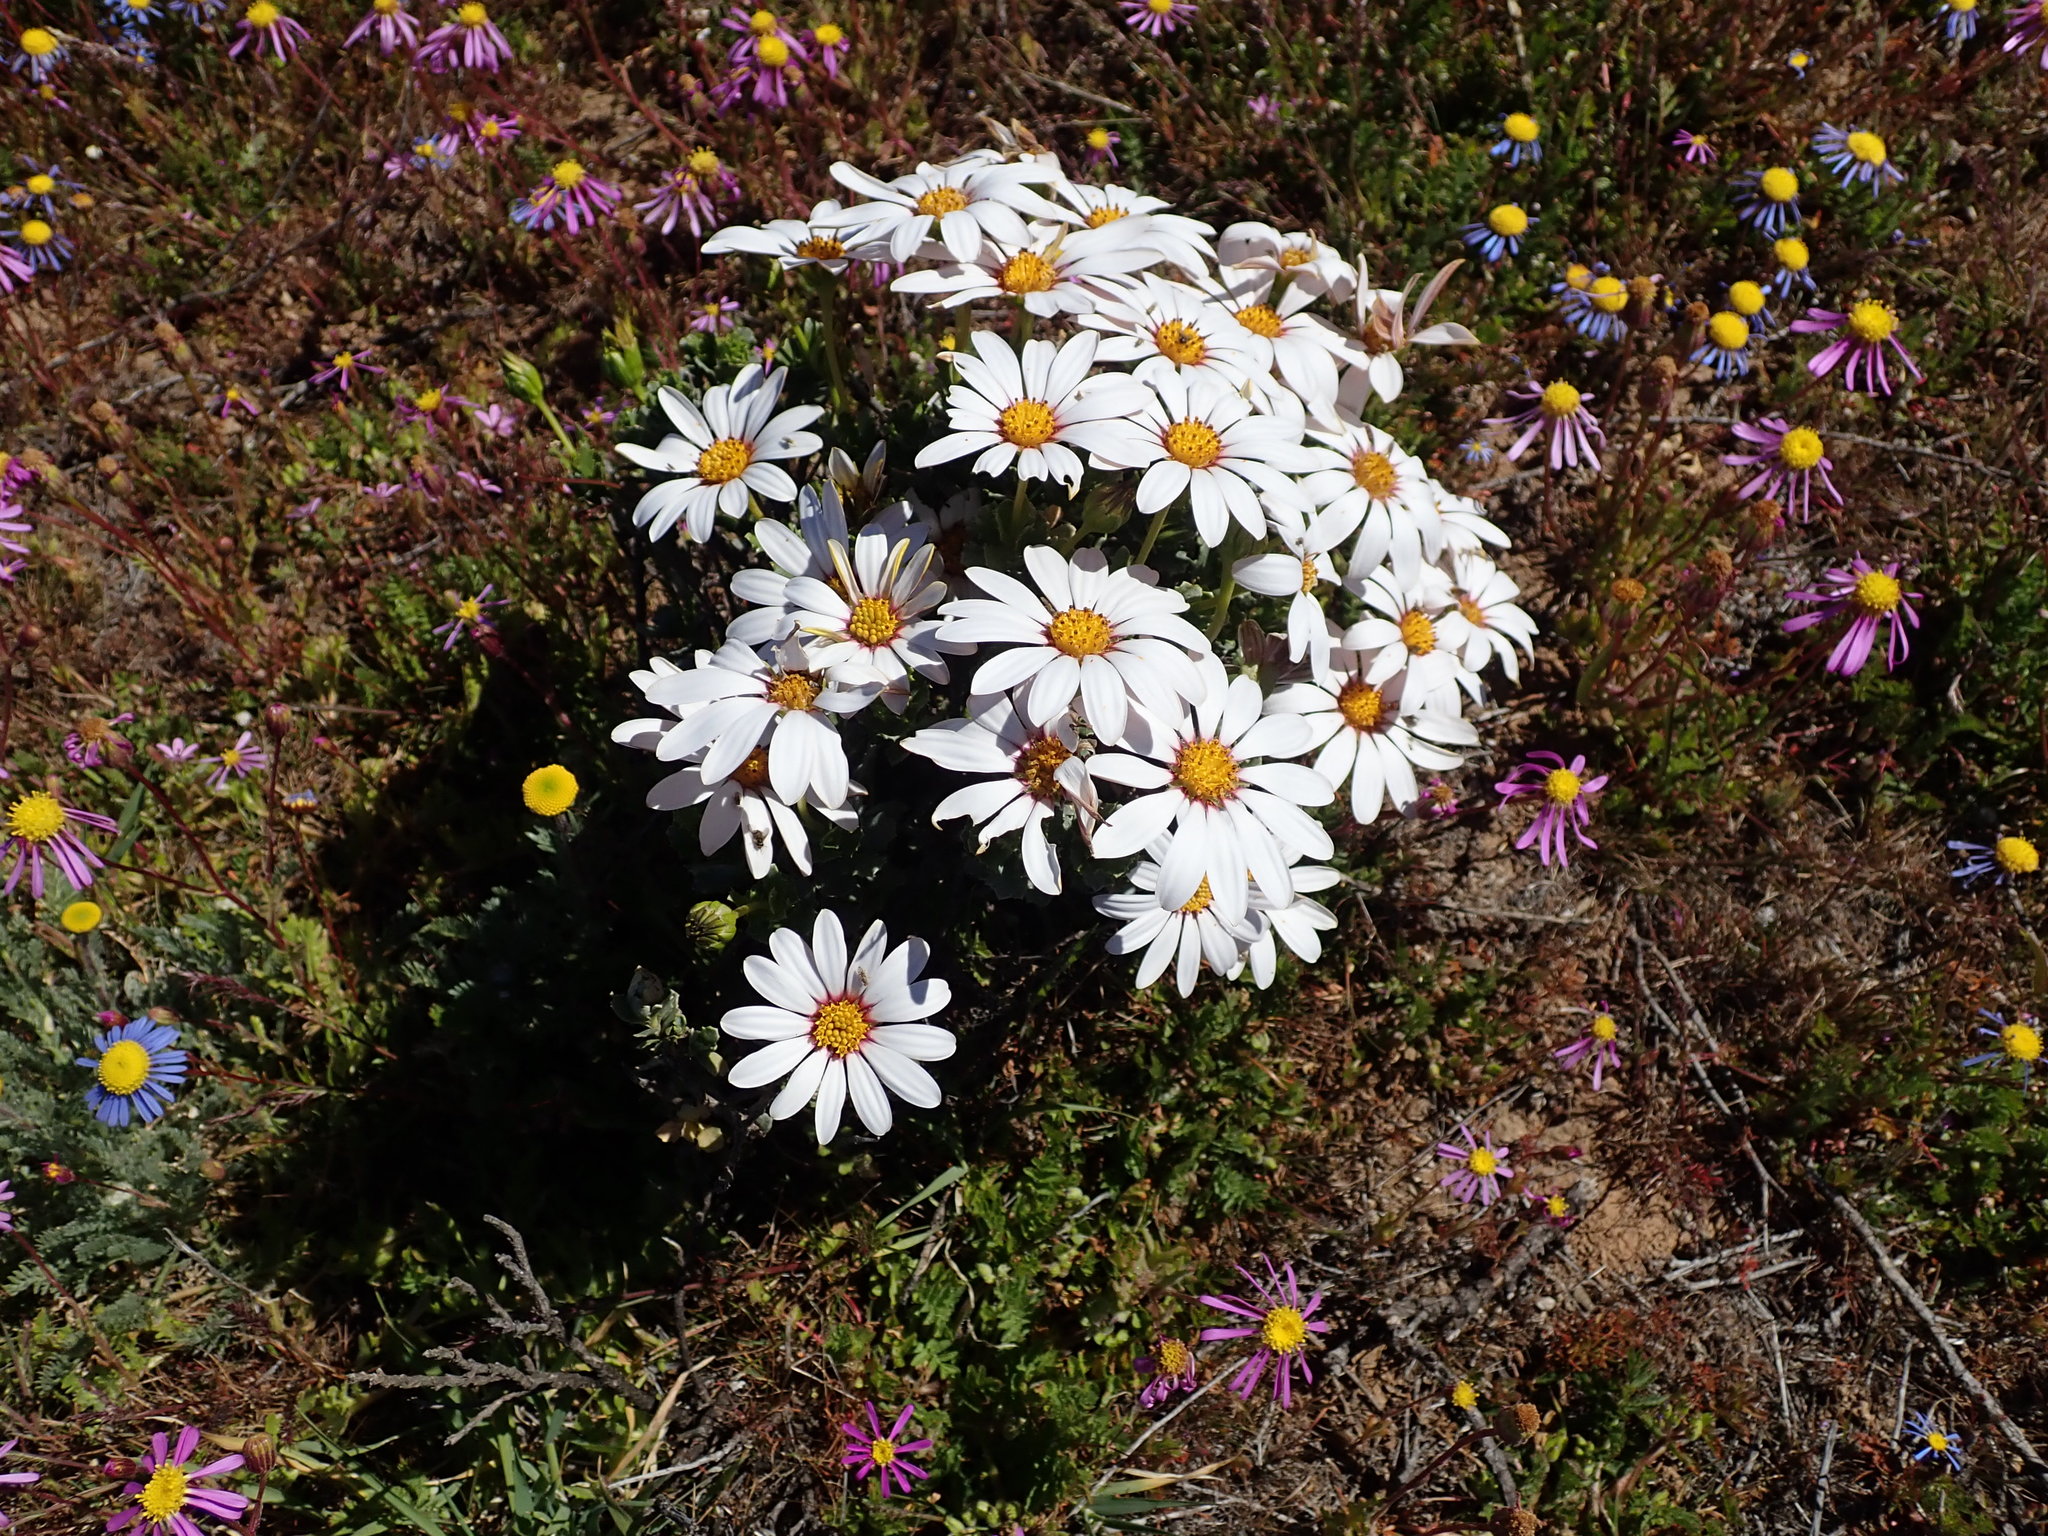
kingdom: Plantae
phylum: Tracheophyta
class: Magnoliopsida
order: Asterales
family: Asteraceae
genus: Dimorphotheca
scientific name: Dimorphotheca cuneata
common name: Daisy
